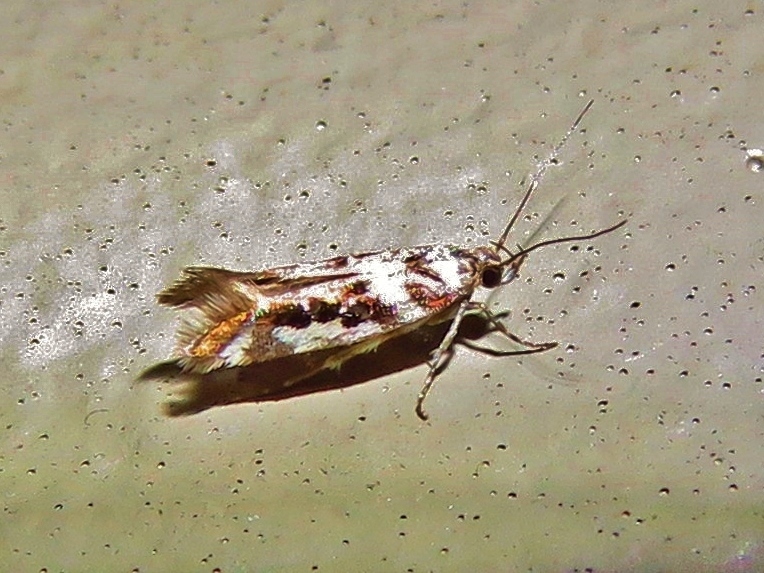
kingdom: Animalia
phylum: Arthropoda
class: Insecta
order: Lepidoptera
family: Gelechiidae
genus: Aristotelia
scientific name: Aristotelia elegantella
